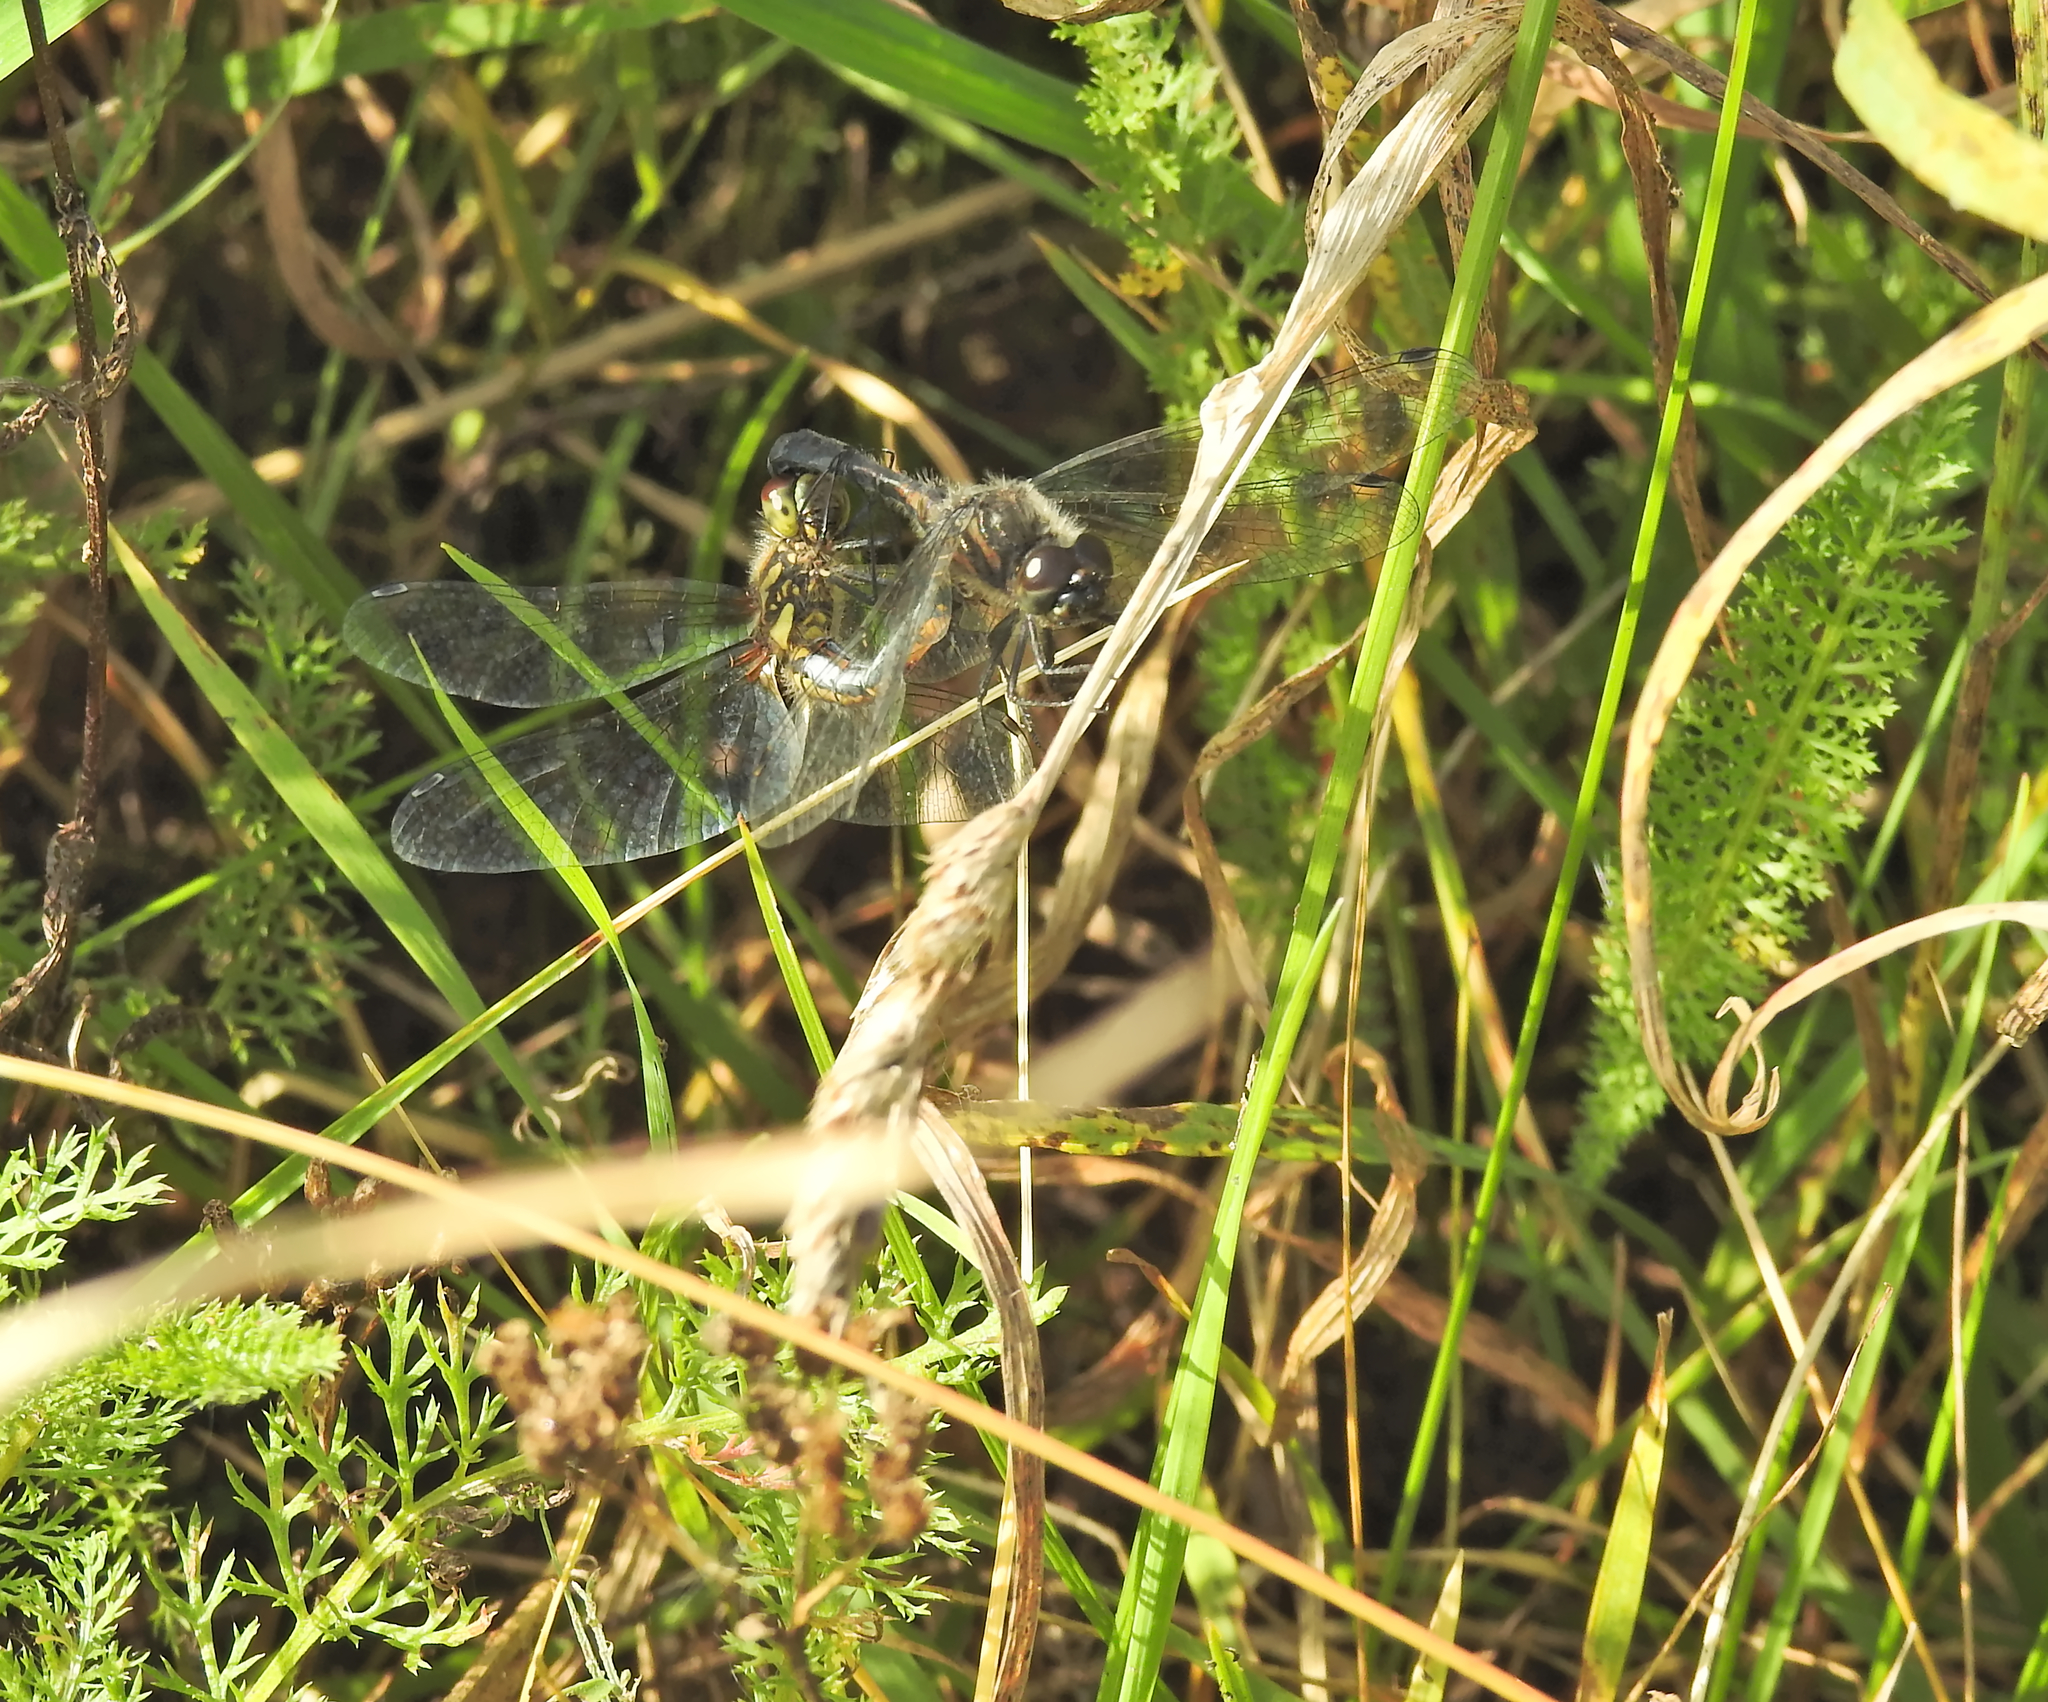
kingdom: Animalia
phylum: Arthropoda
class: Insecta
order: Odonata
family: Libellulidae
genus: Sympetrum
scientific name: Sympetrum danae
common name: Black darter
